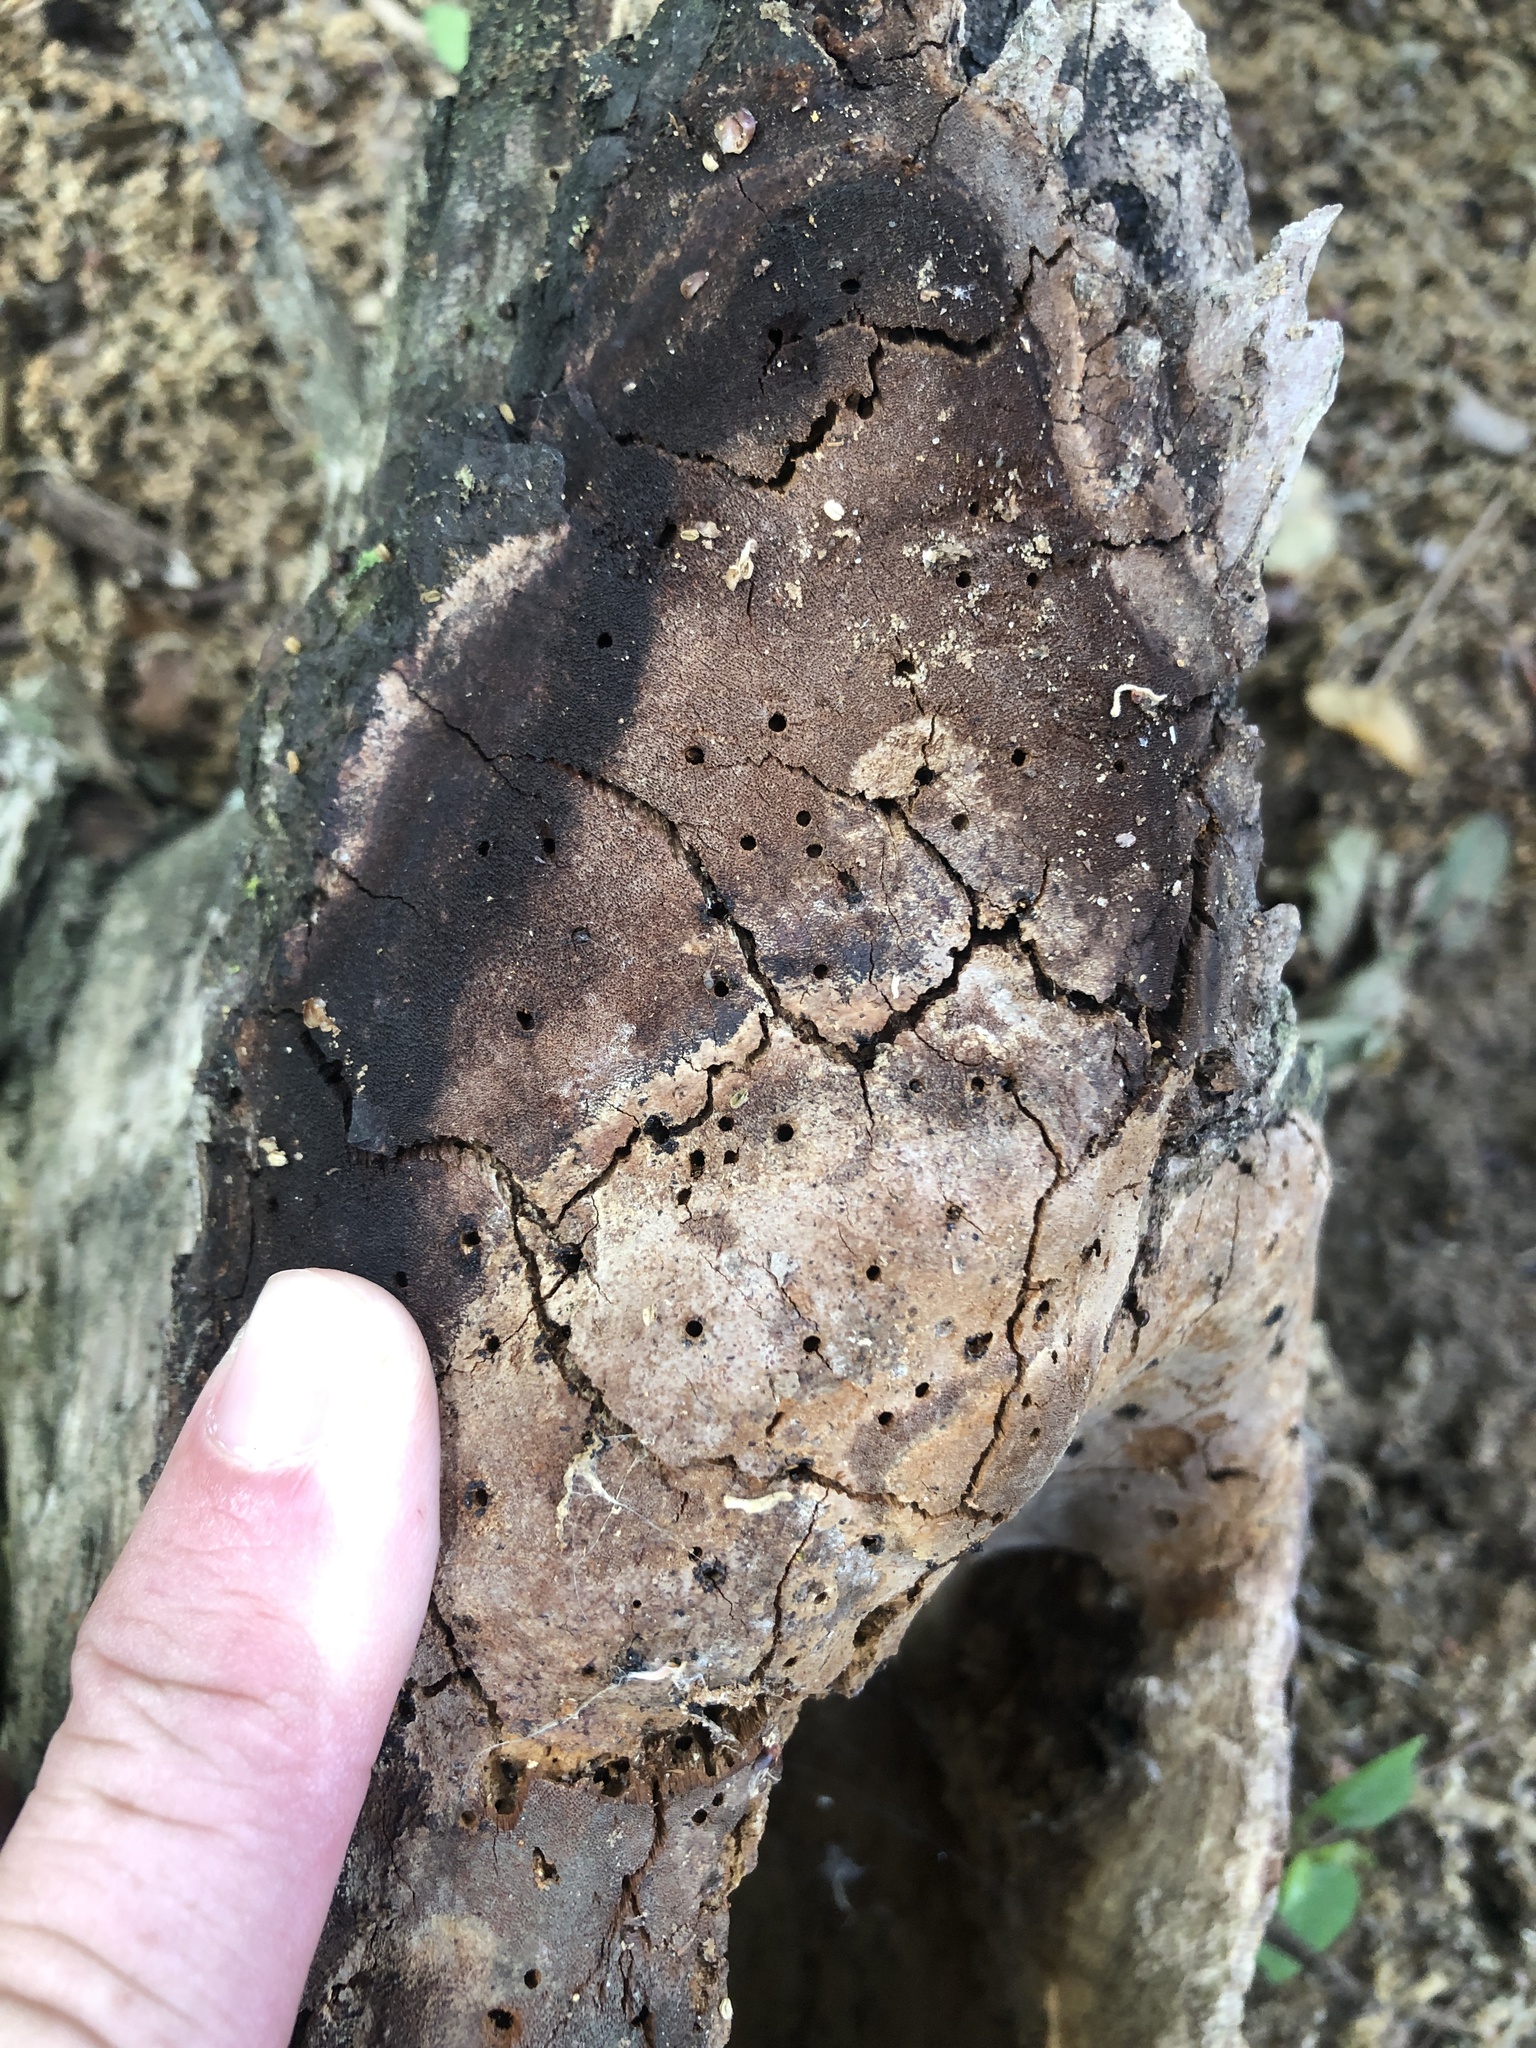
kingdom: Fungi
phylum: Basidiomycota
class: Agaricomycetes
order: Hymenochaetales
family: Hymenochaetaceae
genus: Fomitiporia
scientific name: Fomitiporia punctata
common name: Elbowpatch crust
